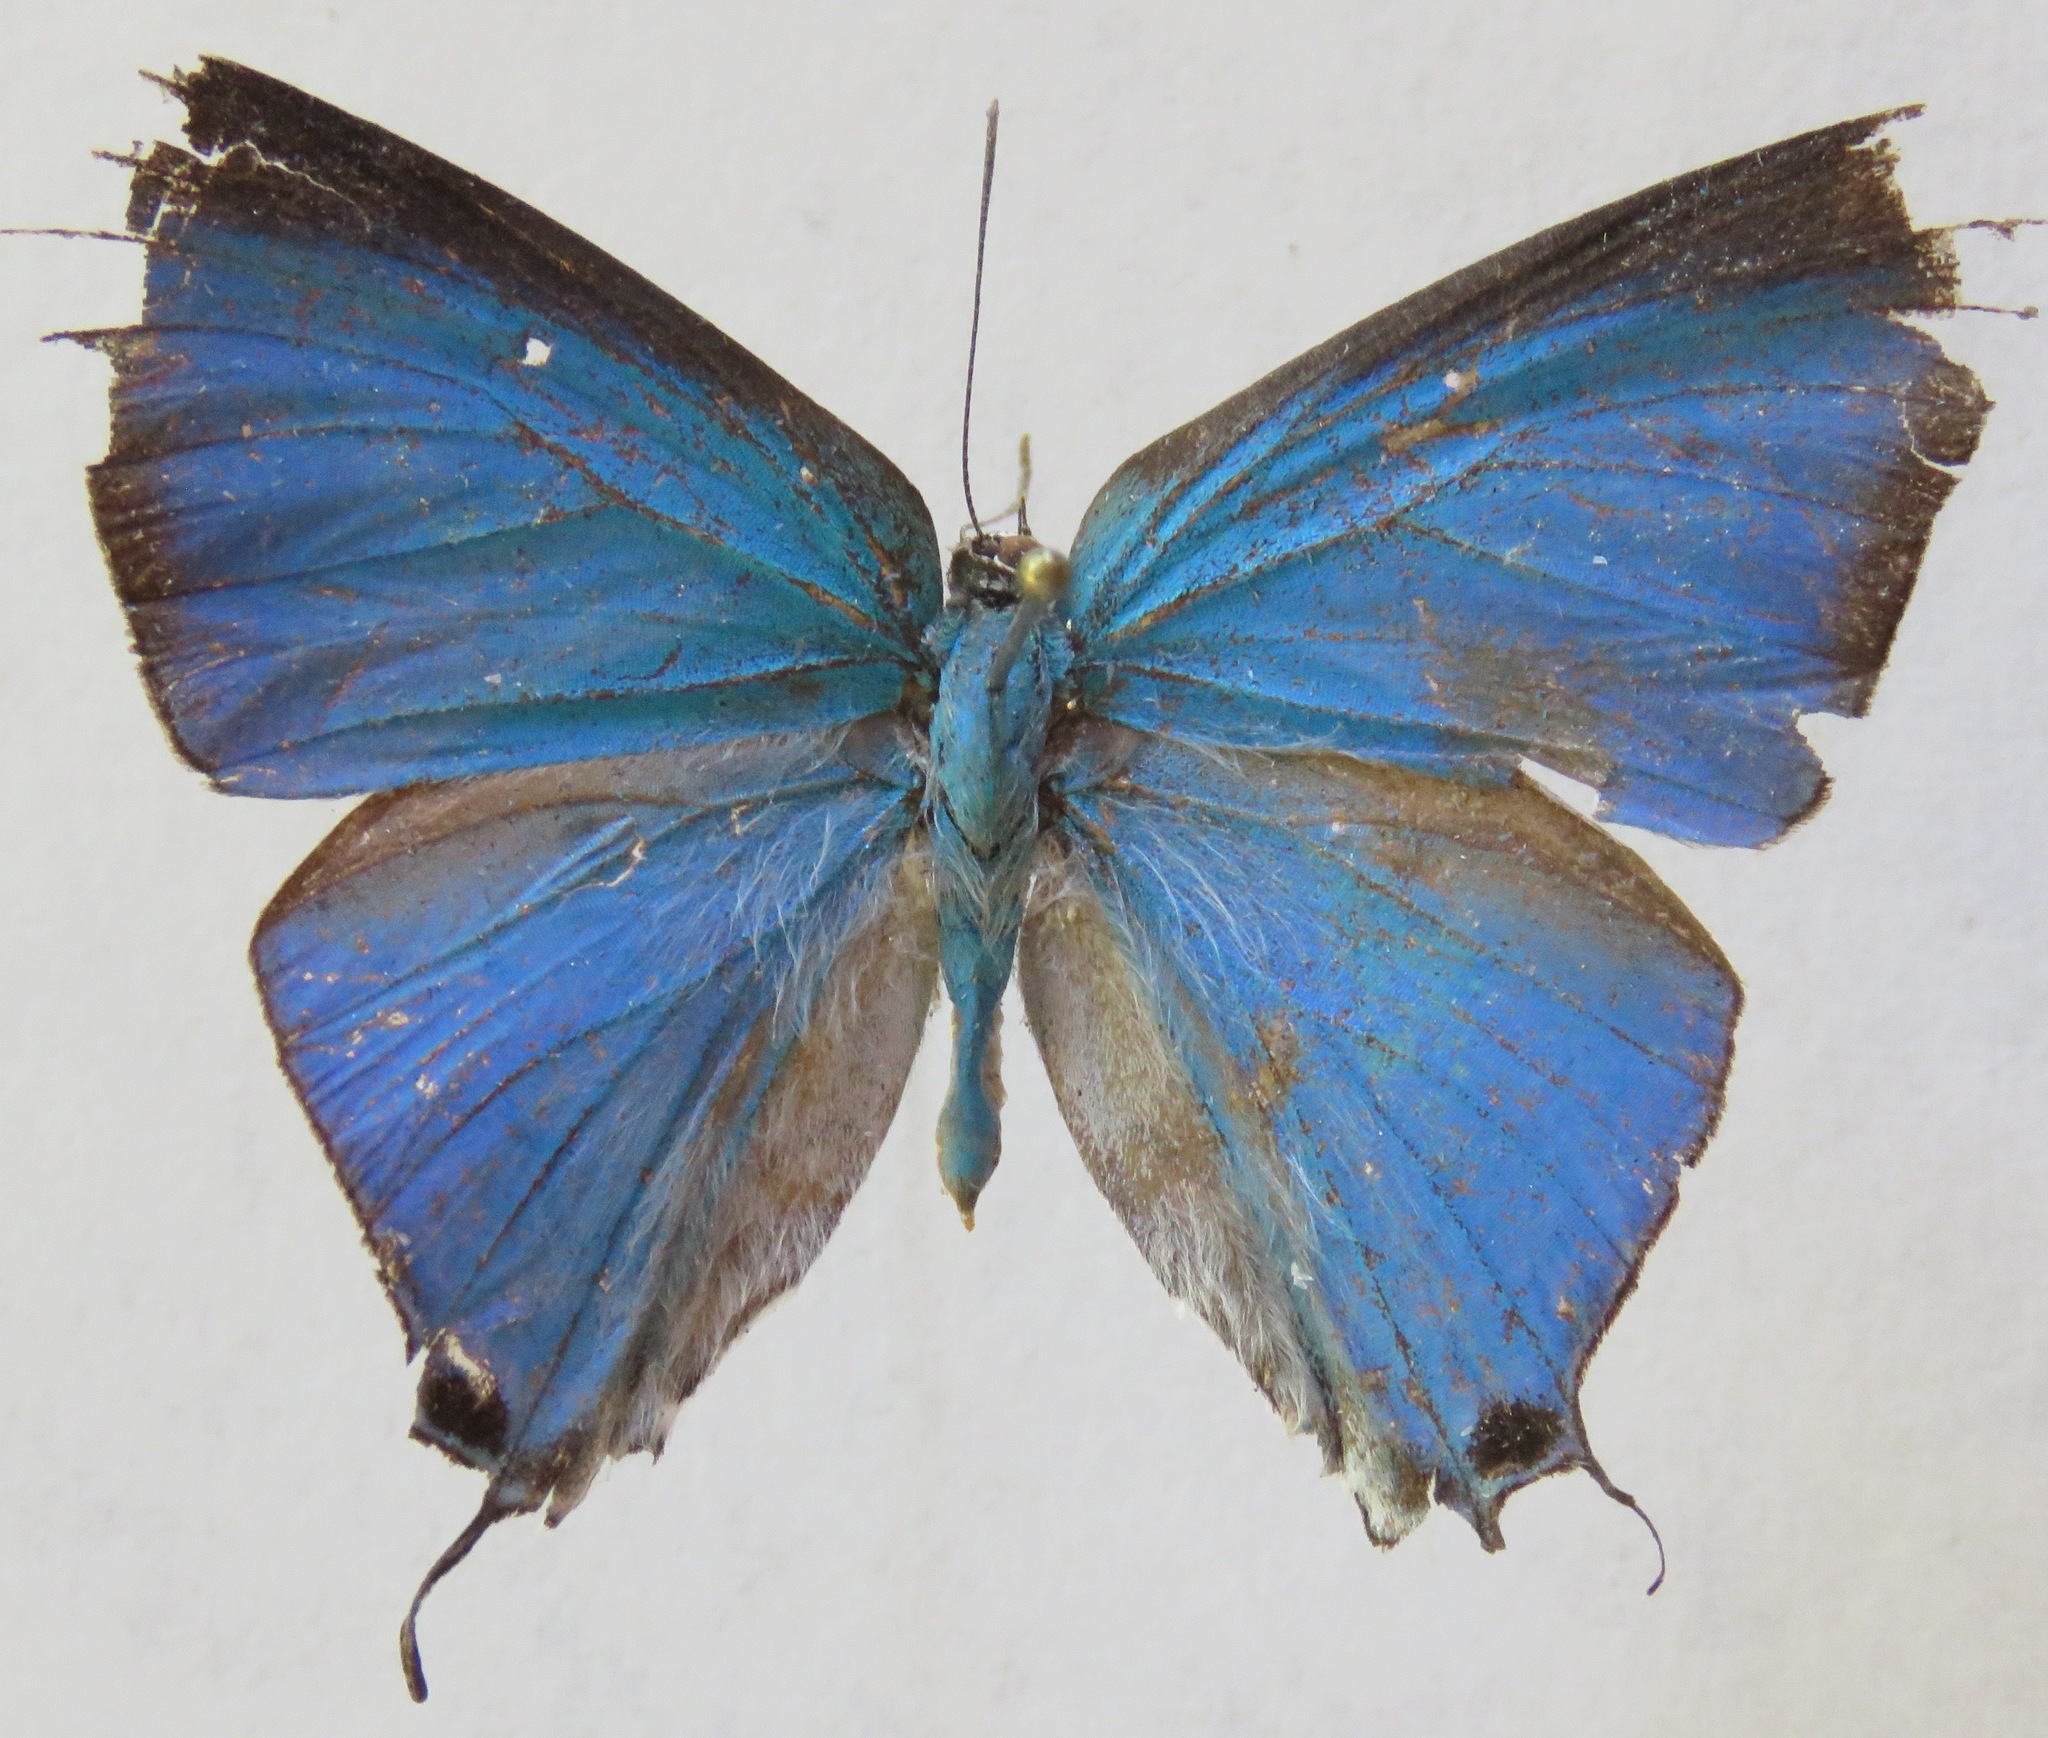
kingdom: Animalia
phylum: Arthropoda
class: Insecta
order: Lepidoptera
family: Lycaenidae
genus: Pseudolycaena
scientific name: Pseudolycaena damo
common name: Sky-blue hairstreak
